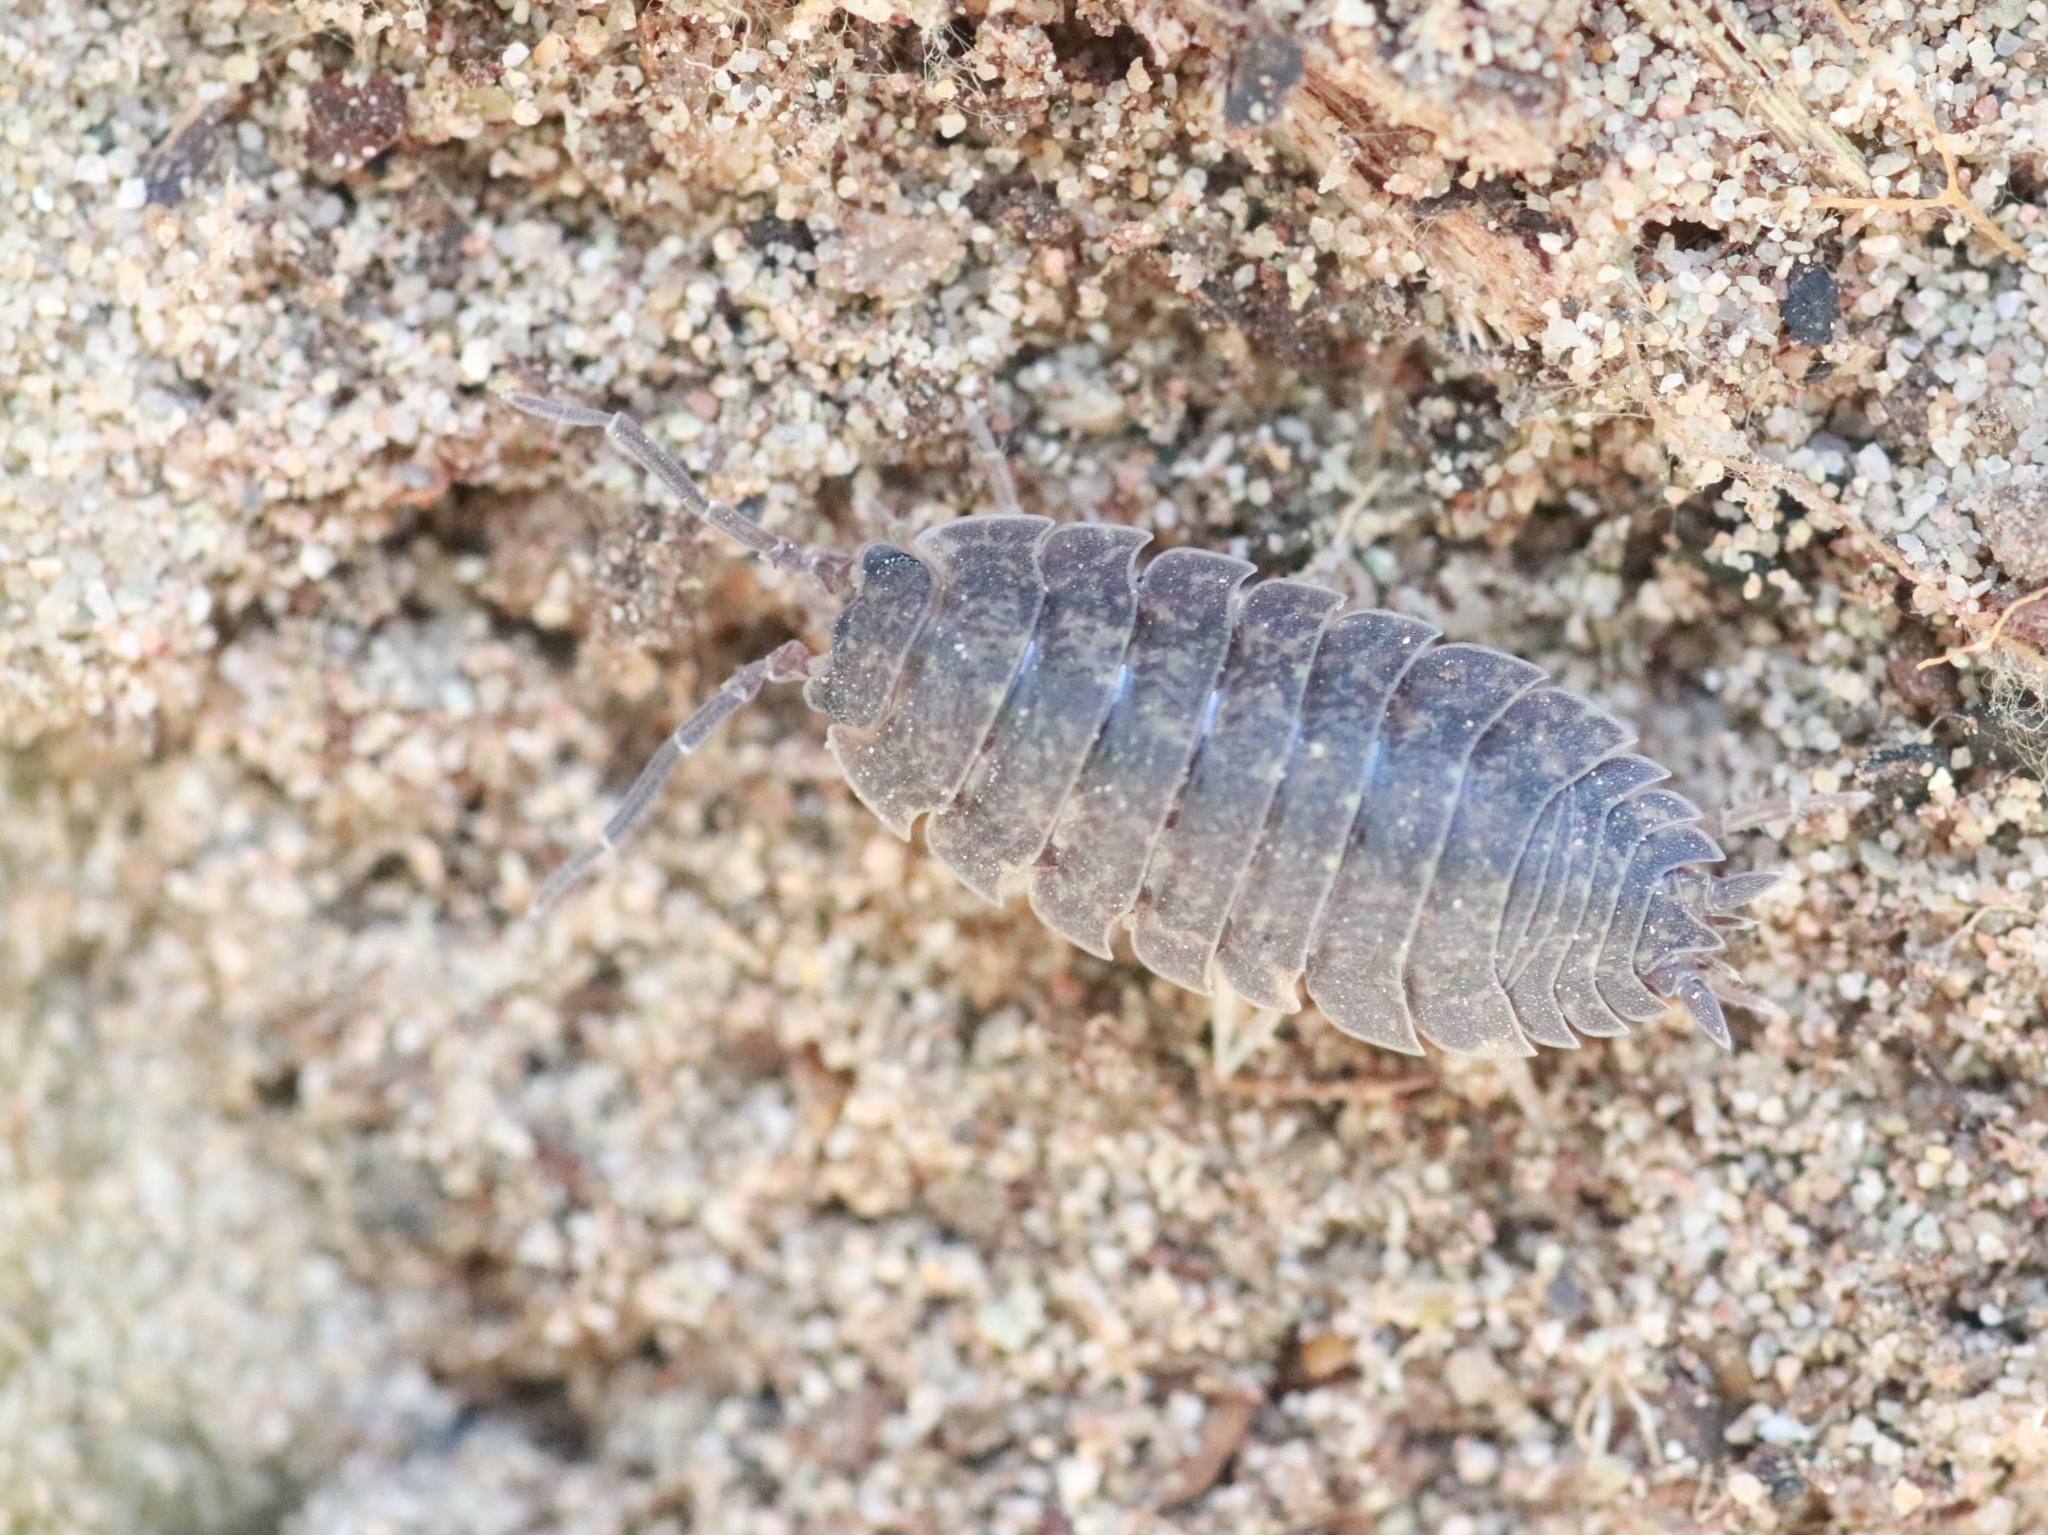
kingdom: Animalia
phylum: Arthropoda
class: Malacostraca
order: Isopoda
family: Porcellionidae
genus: Porcellio
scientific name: Porcellio scaber
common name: Common rough woodlouse
